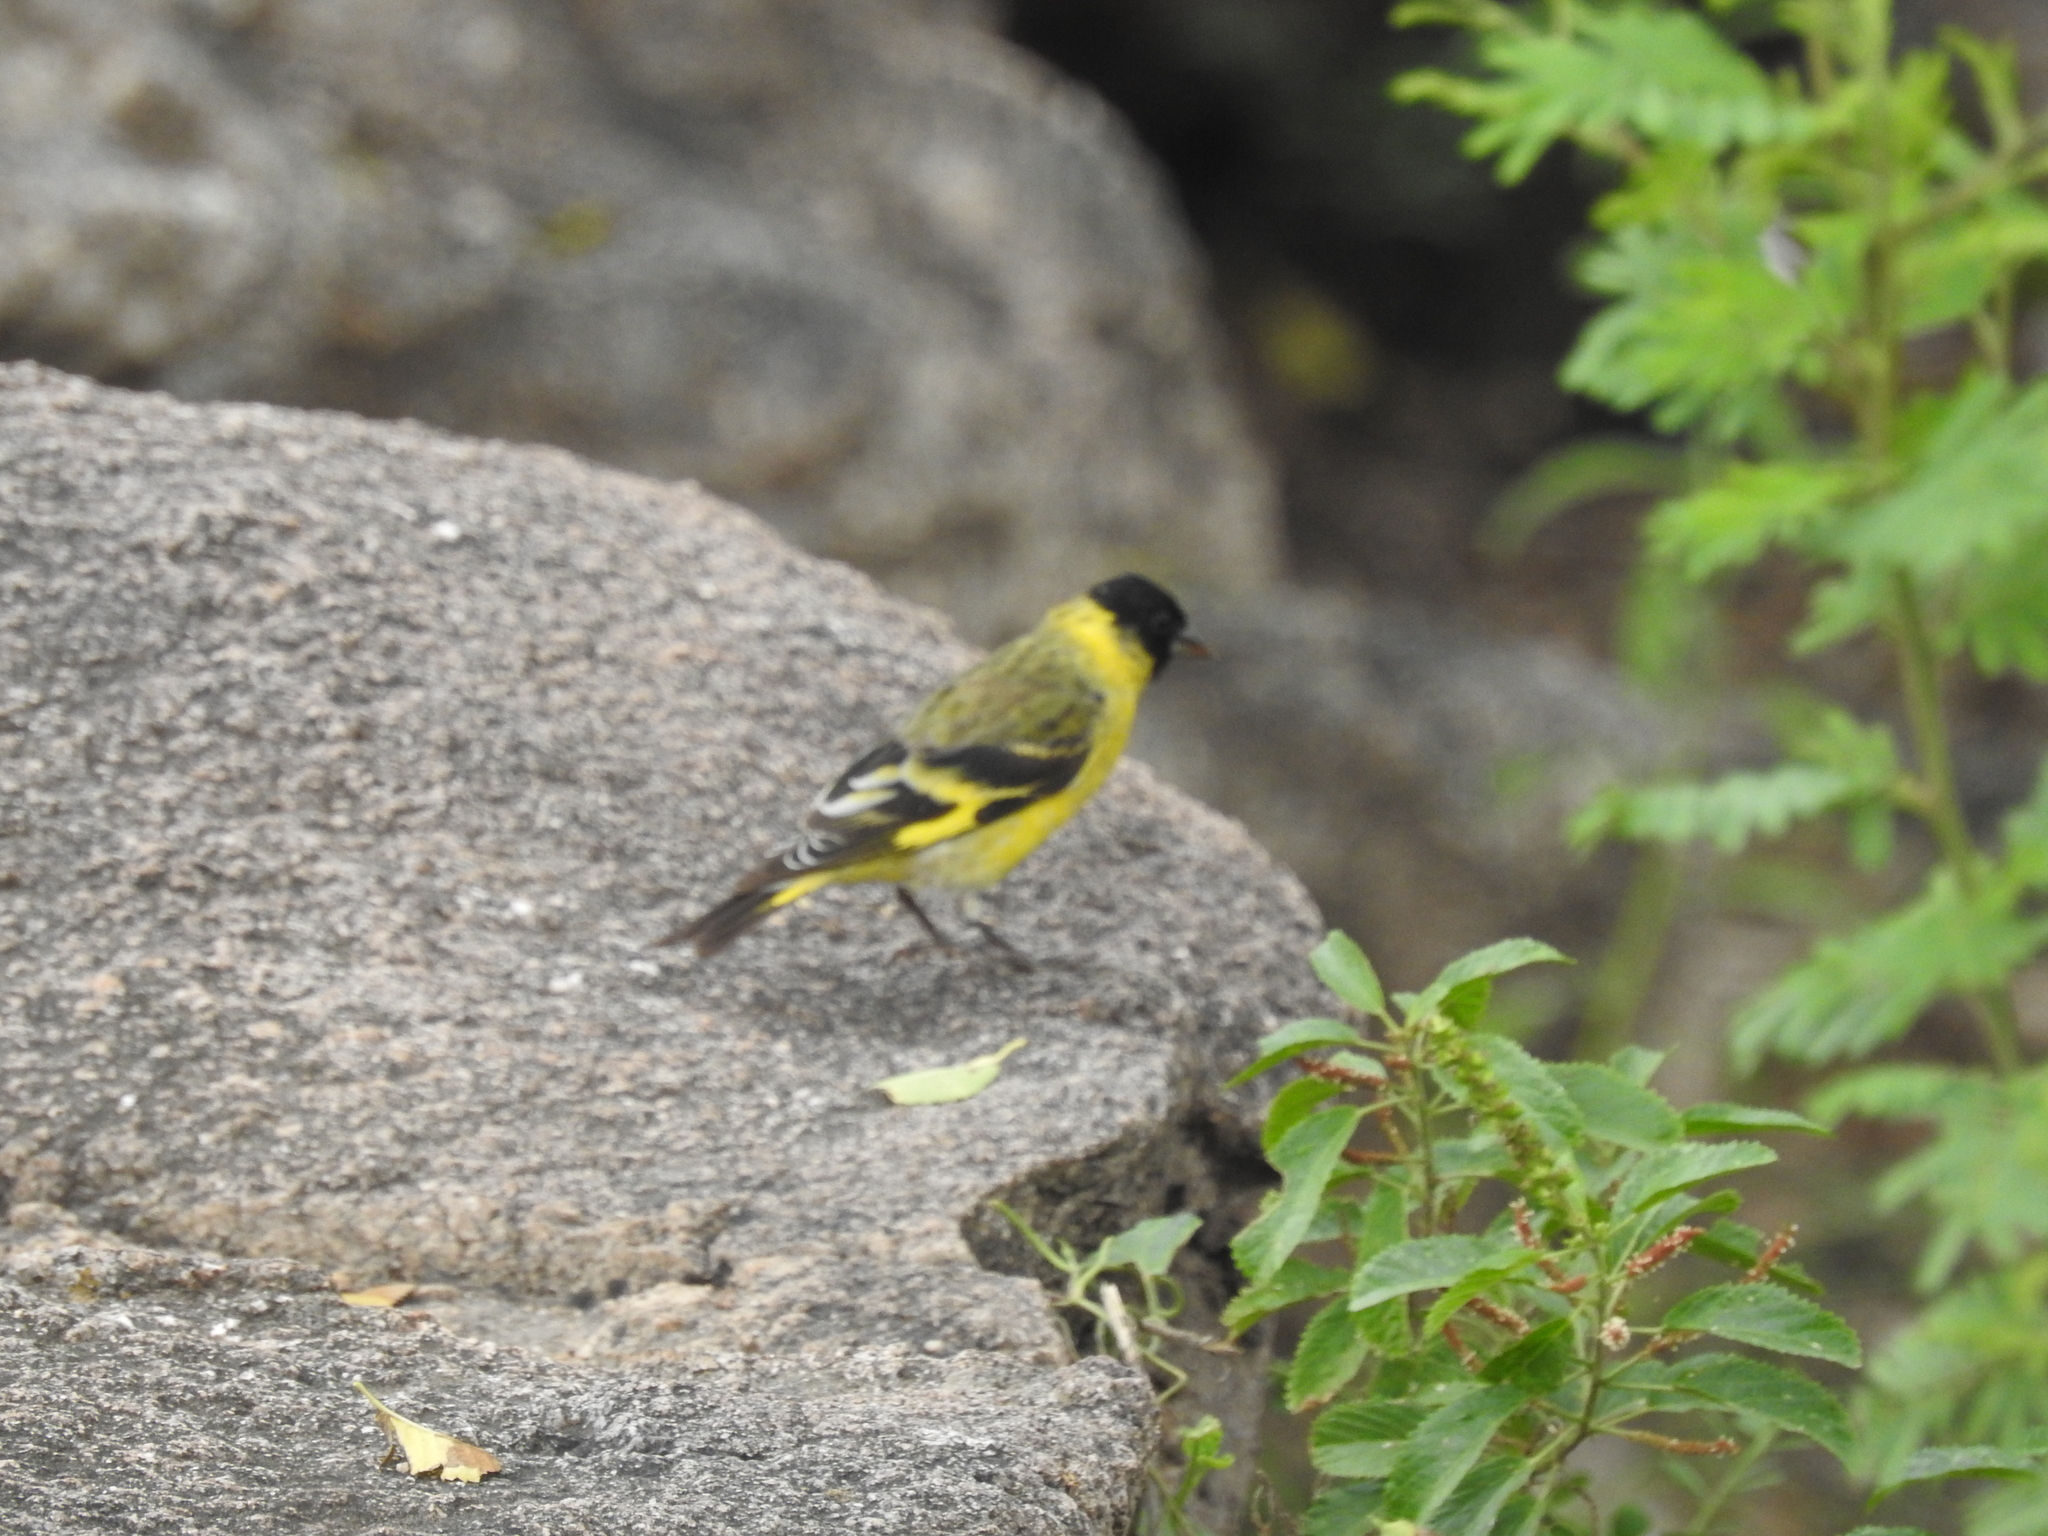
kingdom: Animalia
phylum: Chordata
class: Aves
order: Passeriformes
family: Fringillidae
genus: Spinus
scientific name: Spinus magellanicus
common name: Hooded siskin
